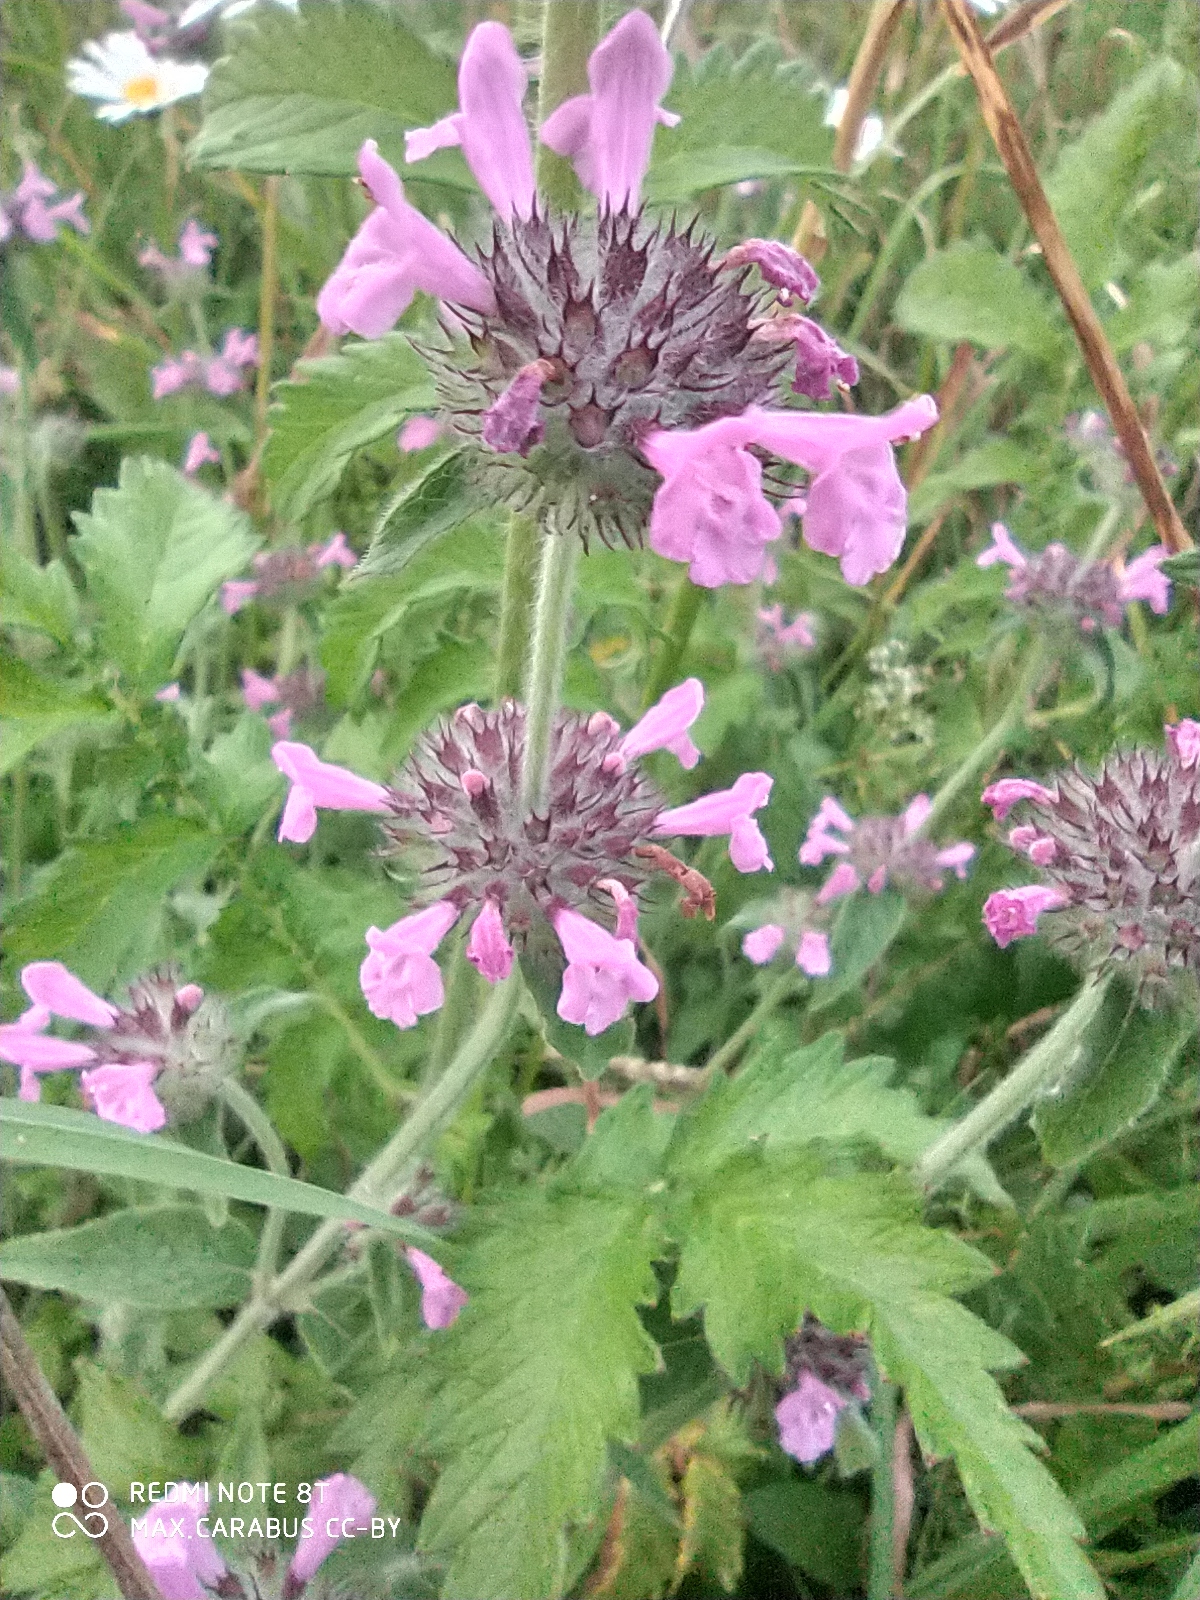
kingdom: Plantae
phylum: Tracheophyta
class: Magnoliopsida
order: Lamiales
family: Lamiaceae
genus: Clinopodium
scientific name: Clinopodium vulgare
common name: Wild basil
